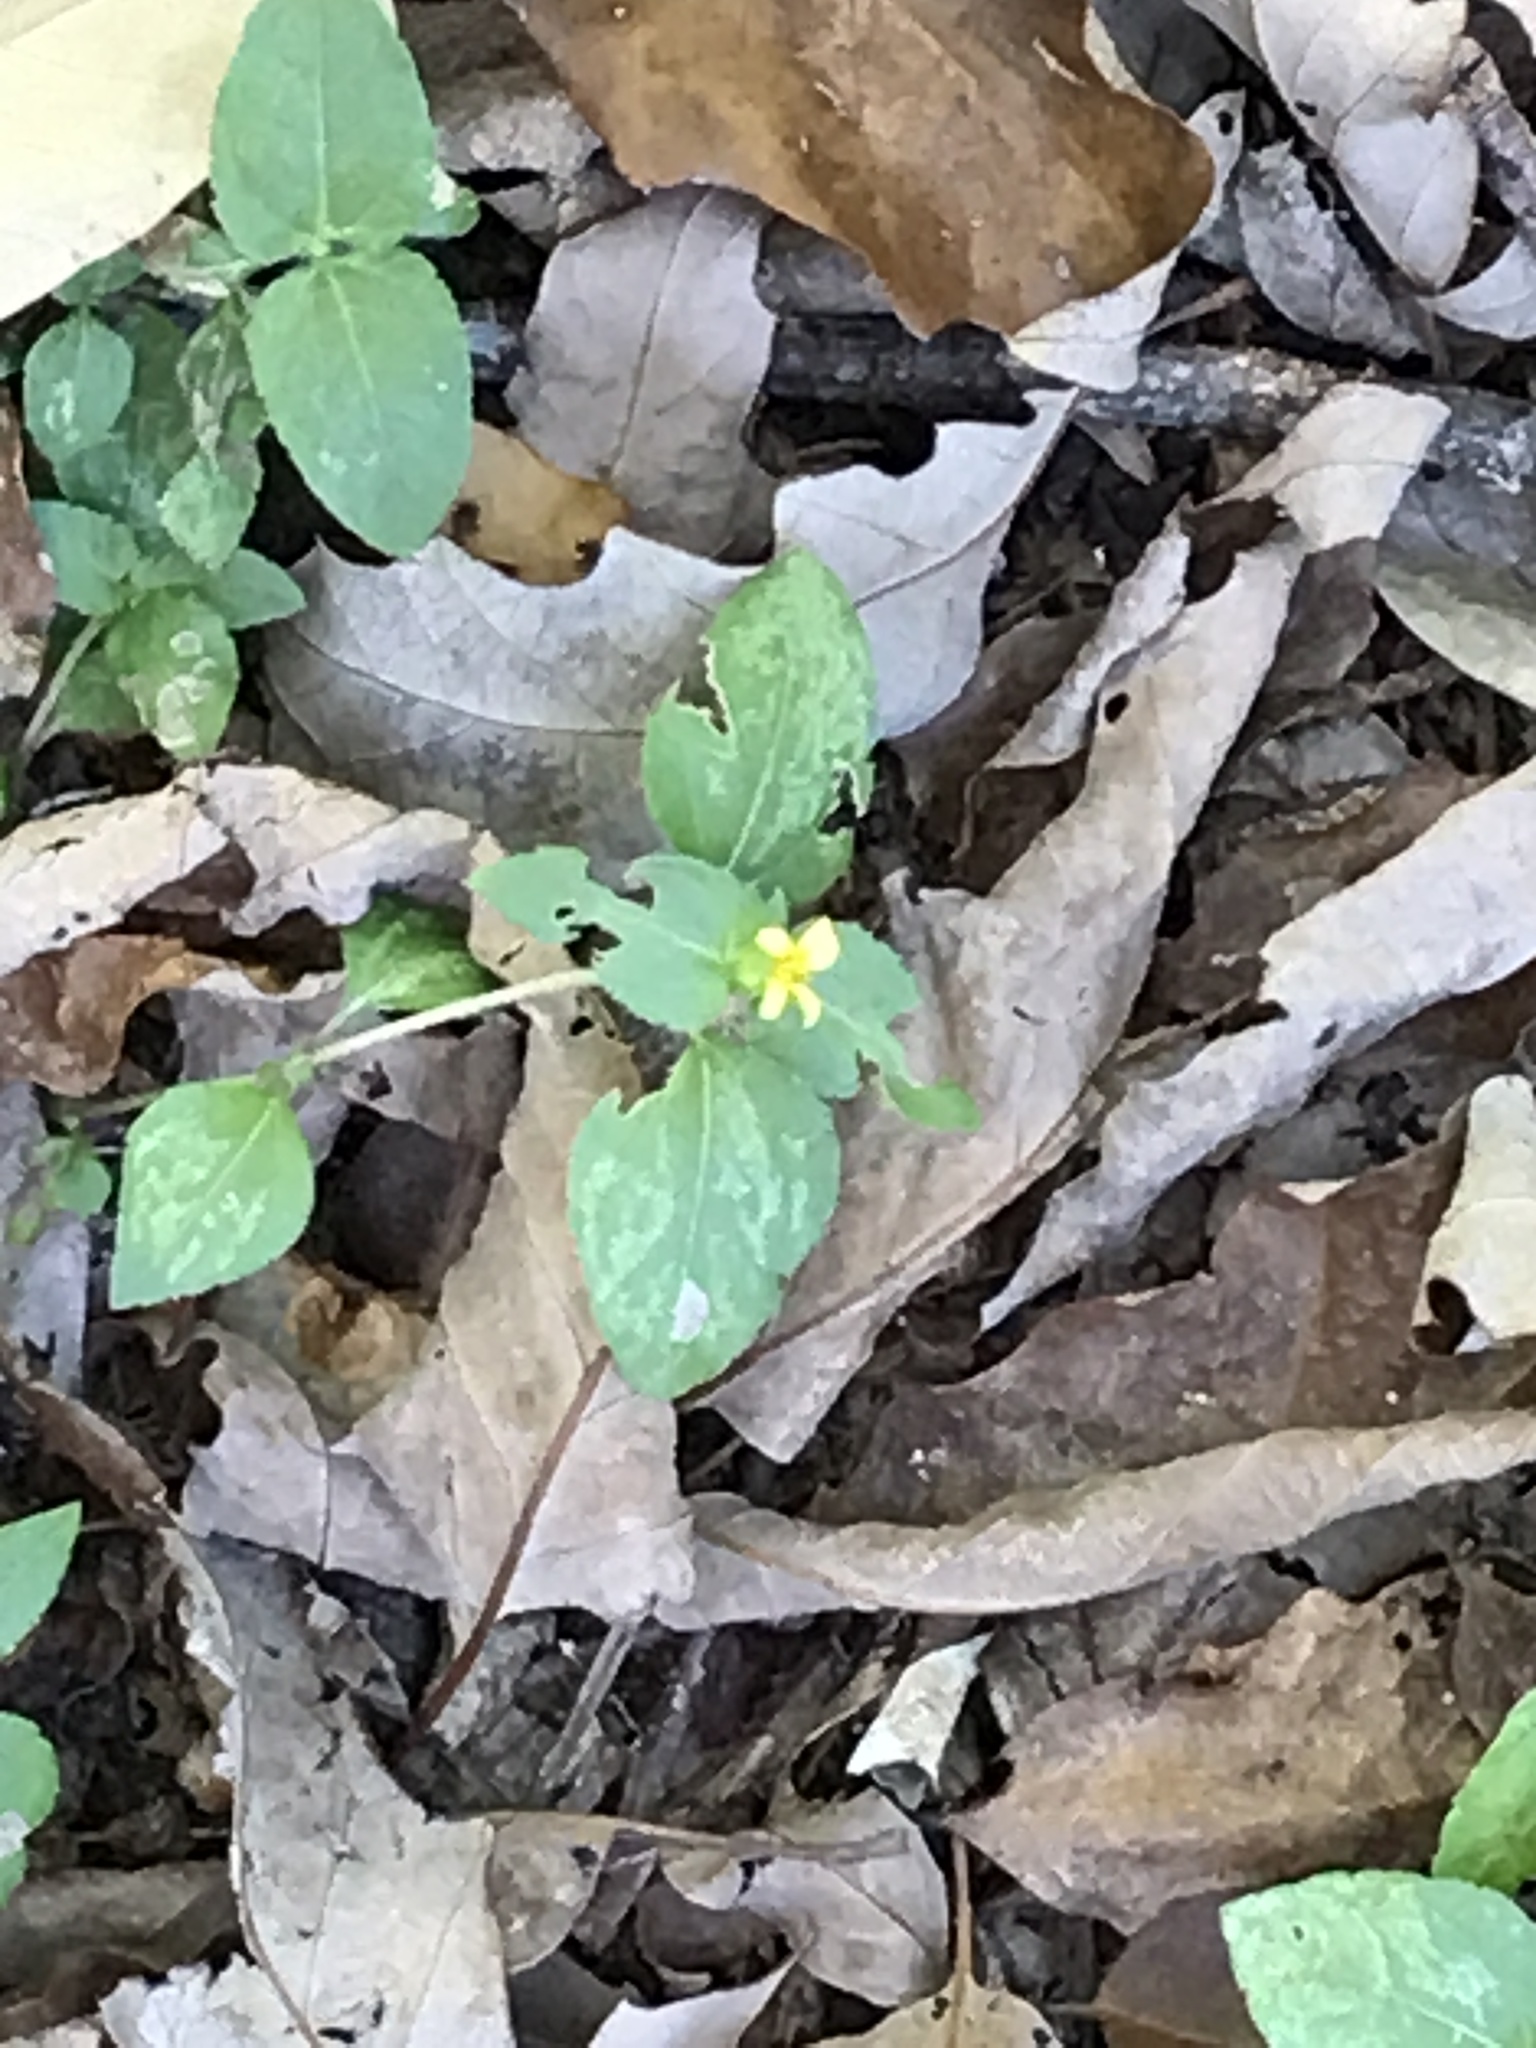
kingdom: Plantae
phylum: Tracheophyta
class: Magnoliopsida
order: Asterales
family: Asteraceae
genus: Calyptocarpus
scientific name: Calyptocarpus vialis
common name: Straggler daisy
